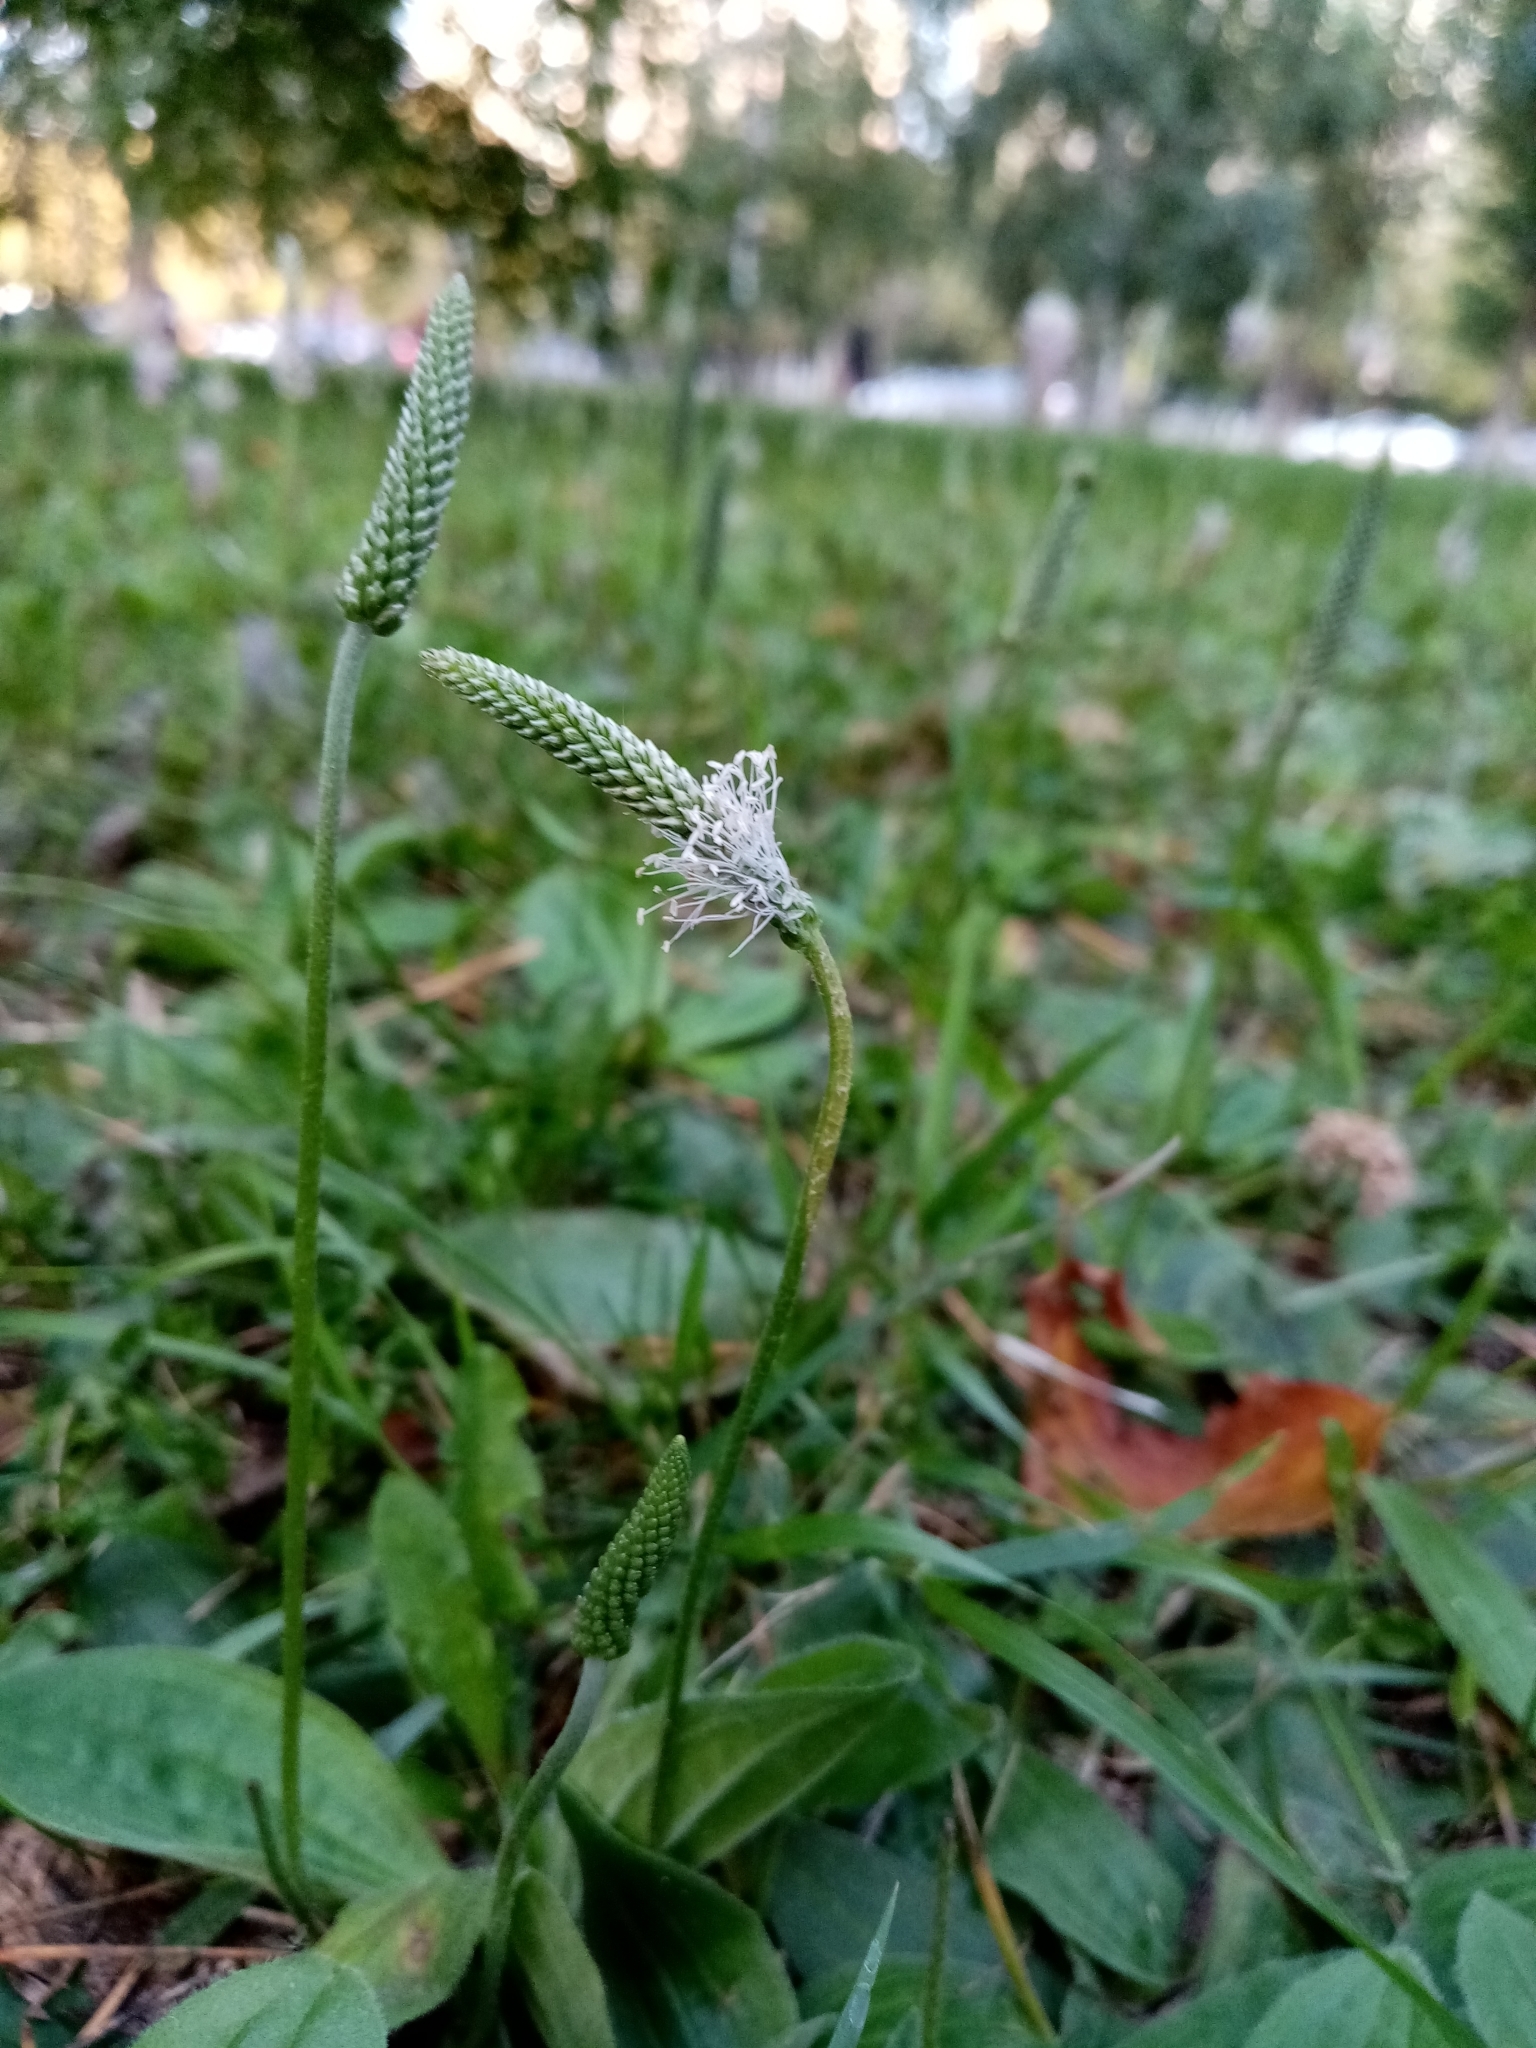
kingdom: Plantae
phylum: Tracheophyta
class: Magnoliopsida
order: Lamiales
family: Plantaginaceae
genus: Plantago
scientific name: Plantago media
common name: Hoary plantain
